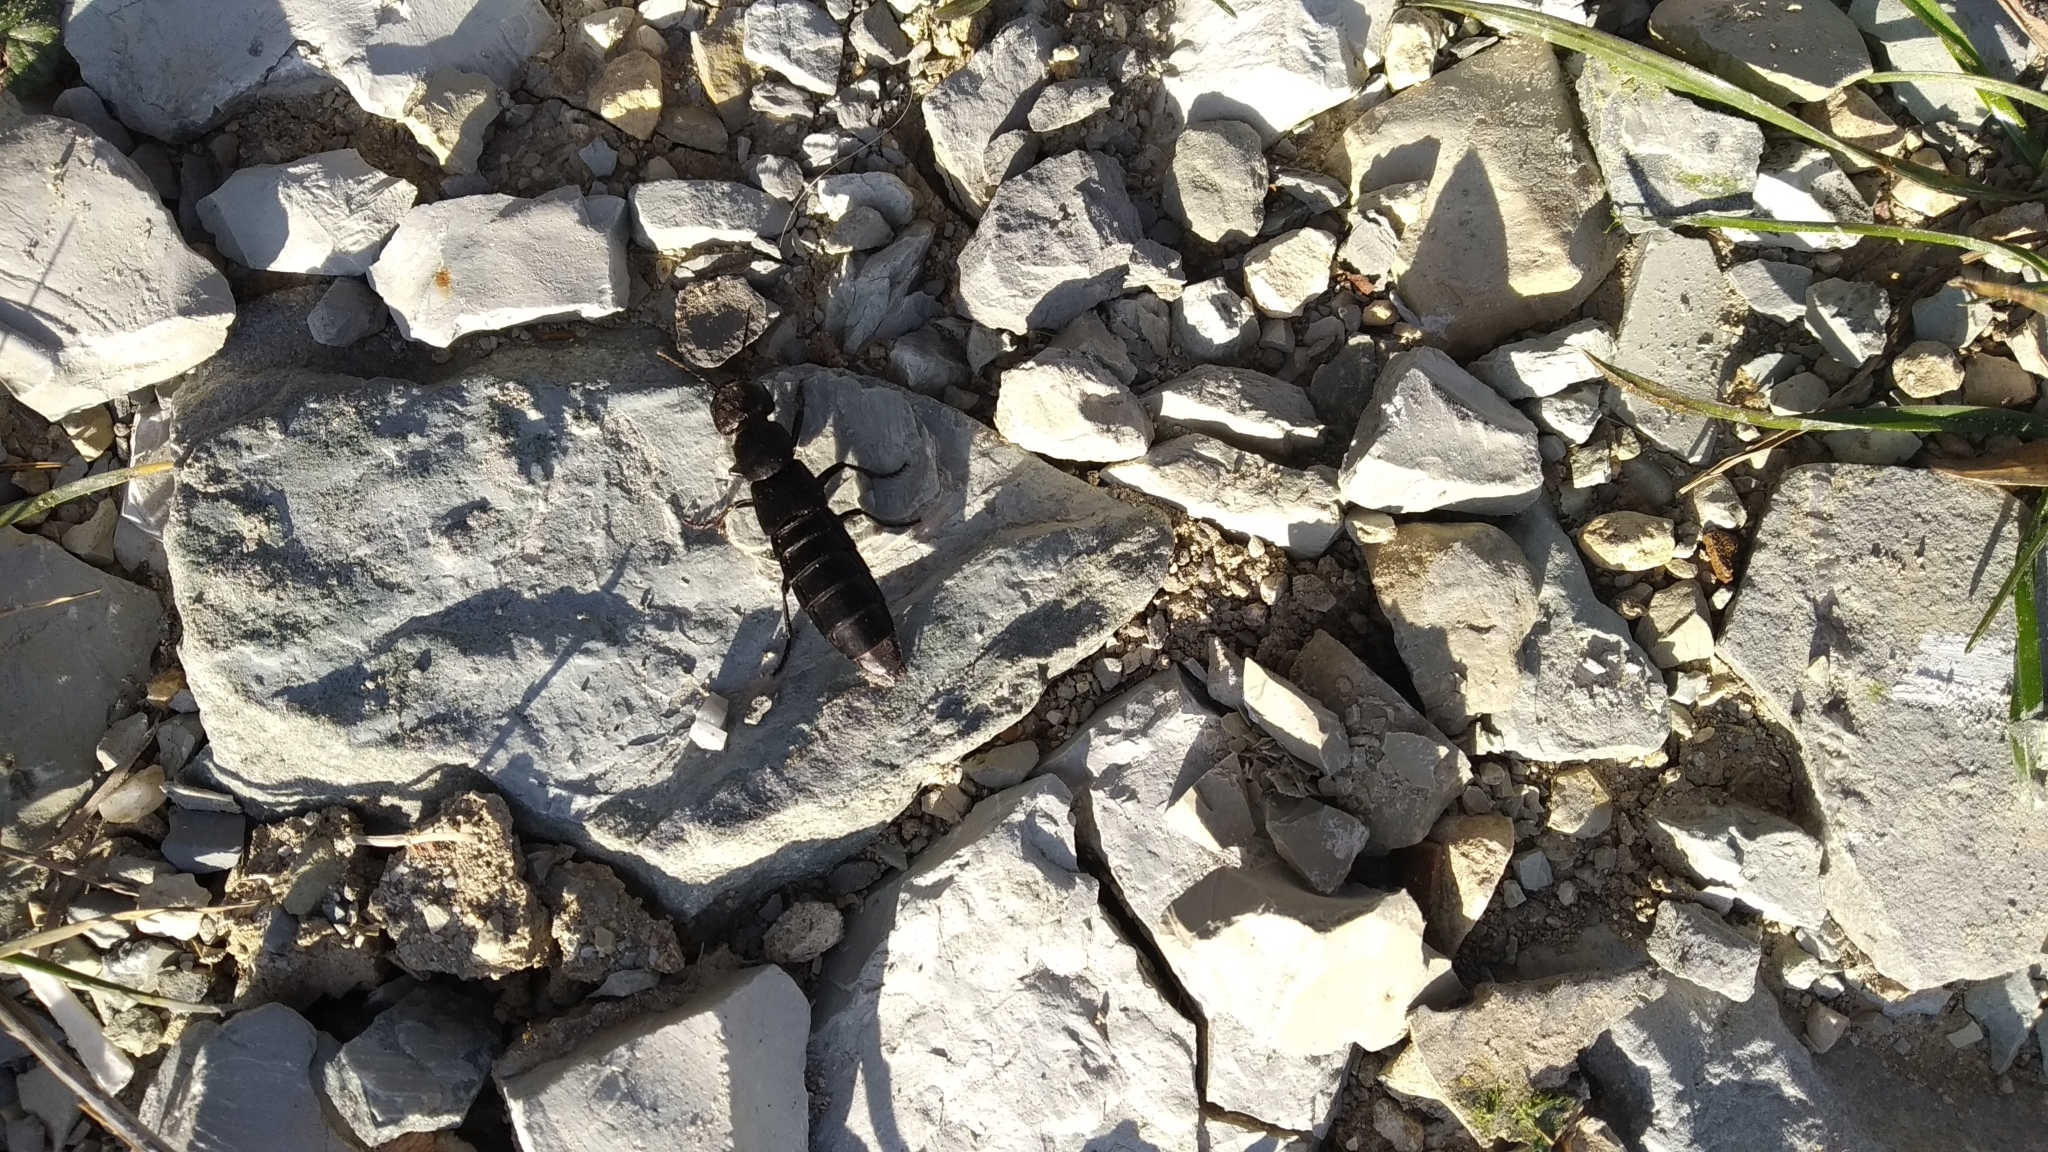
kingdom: Animalia
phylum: Arthropoda
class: Insecta
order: Coleoptera
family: Staphylinidae
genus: Ocypus
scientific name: Ocypus curtipennis
